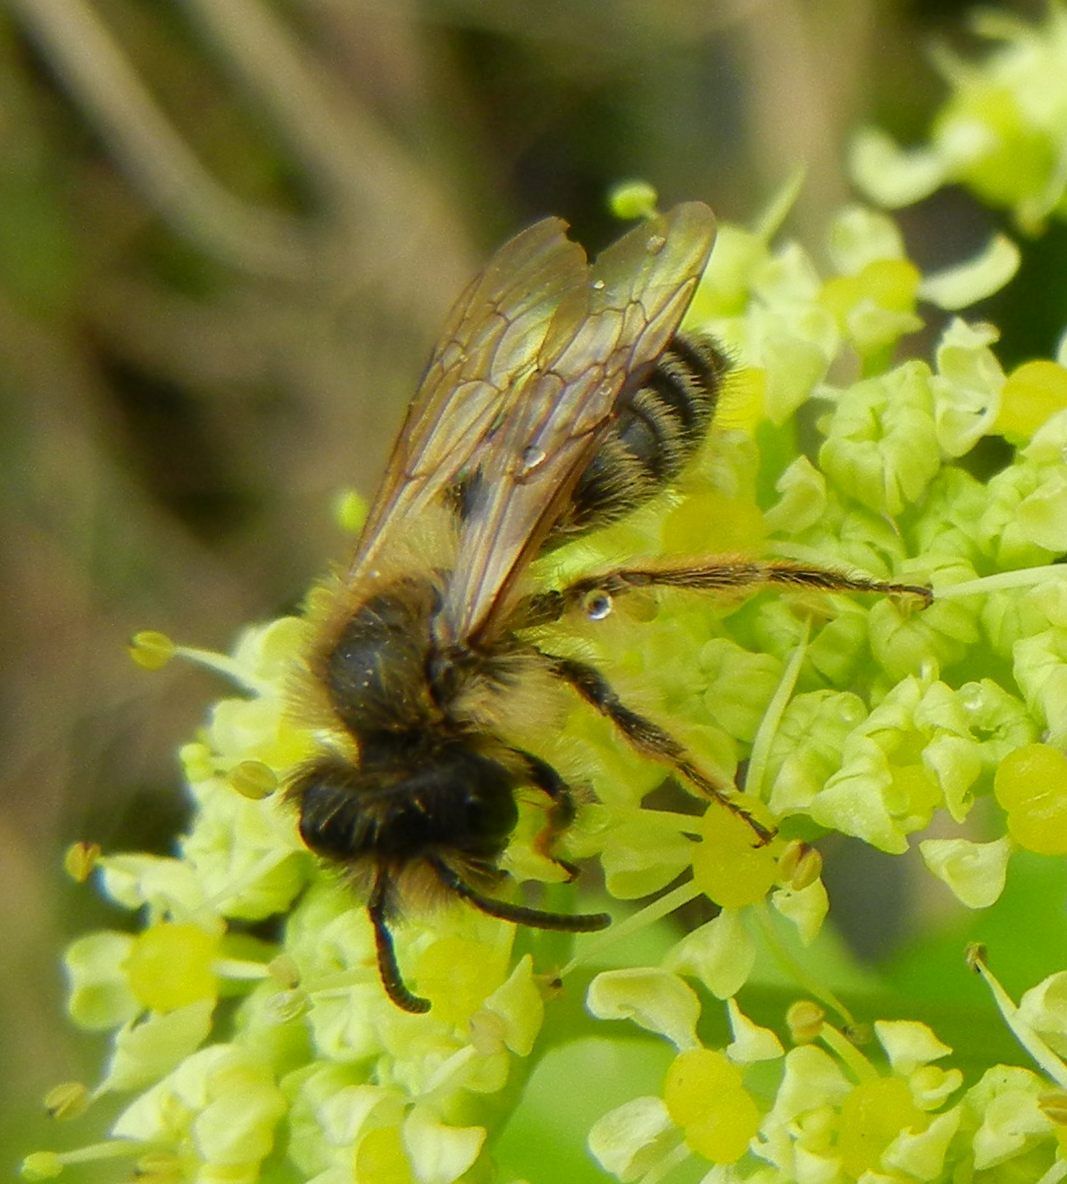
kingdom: Animalia
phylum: Arthropoda
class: Insecta
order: Hymenoptera
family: Andrenidae
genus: Andrena
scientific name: Andrena flavipes
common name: Yellow-legged mining bee
